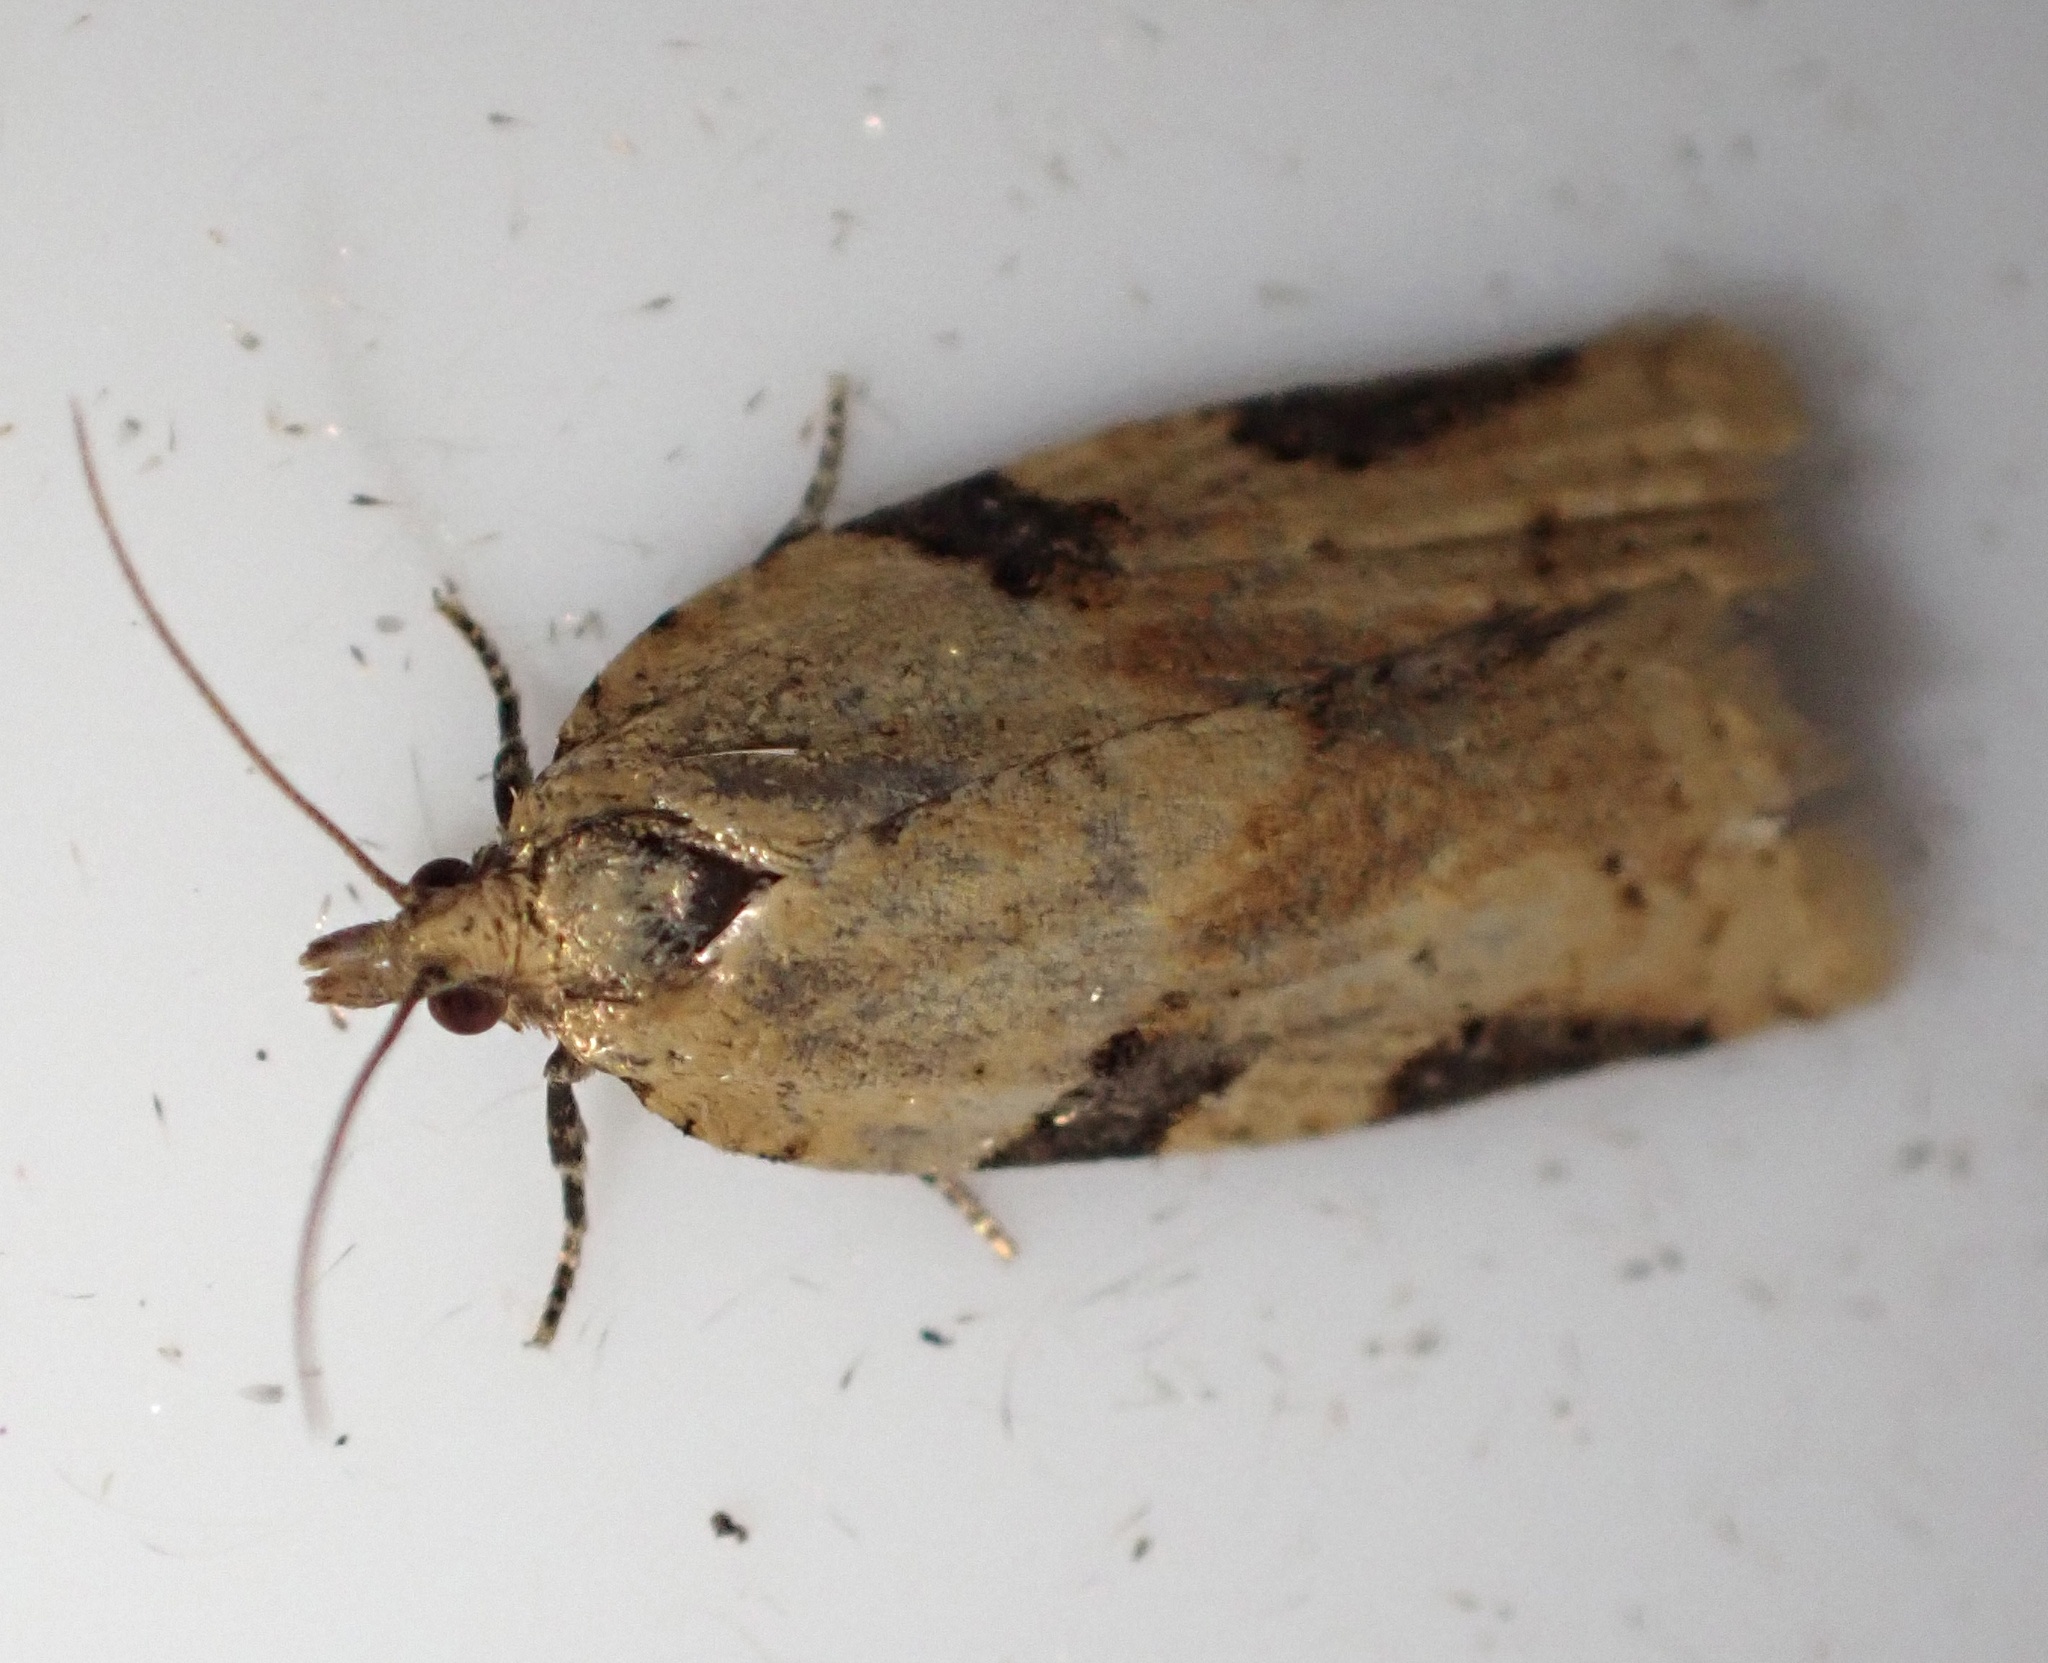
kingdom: Animalia
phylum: Arthropoda
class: Insecta
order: Lepidoptera
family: Tortricidae
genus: Clepsis
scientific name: Clepsis spectrana
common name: Cyclamen tortrix
